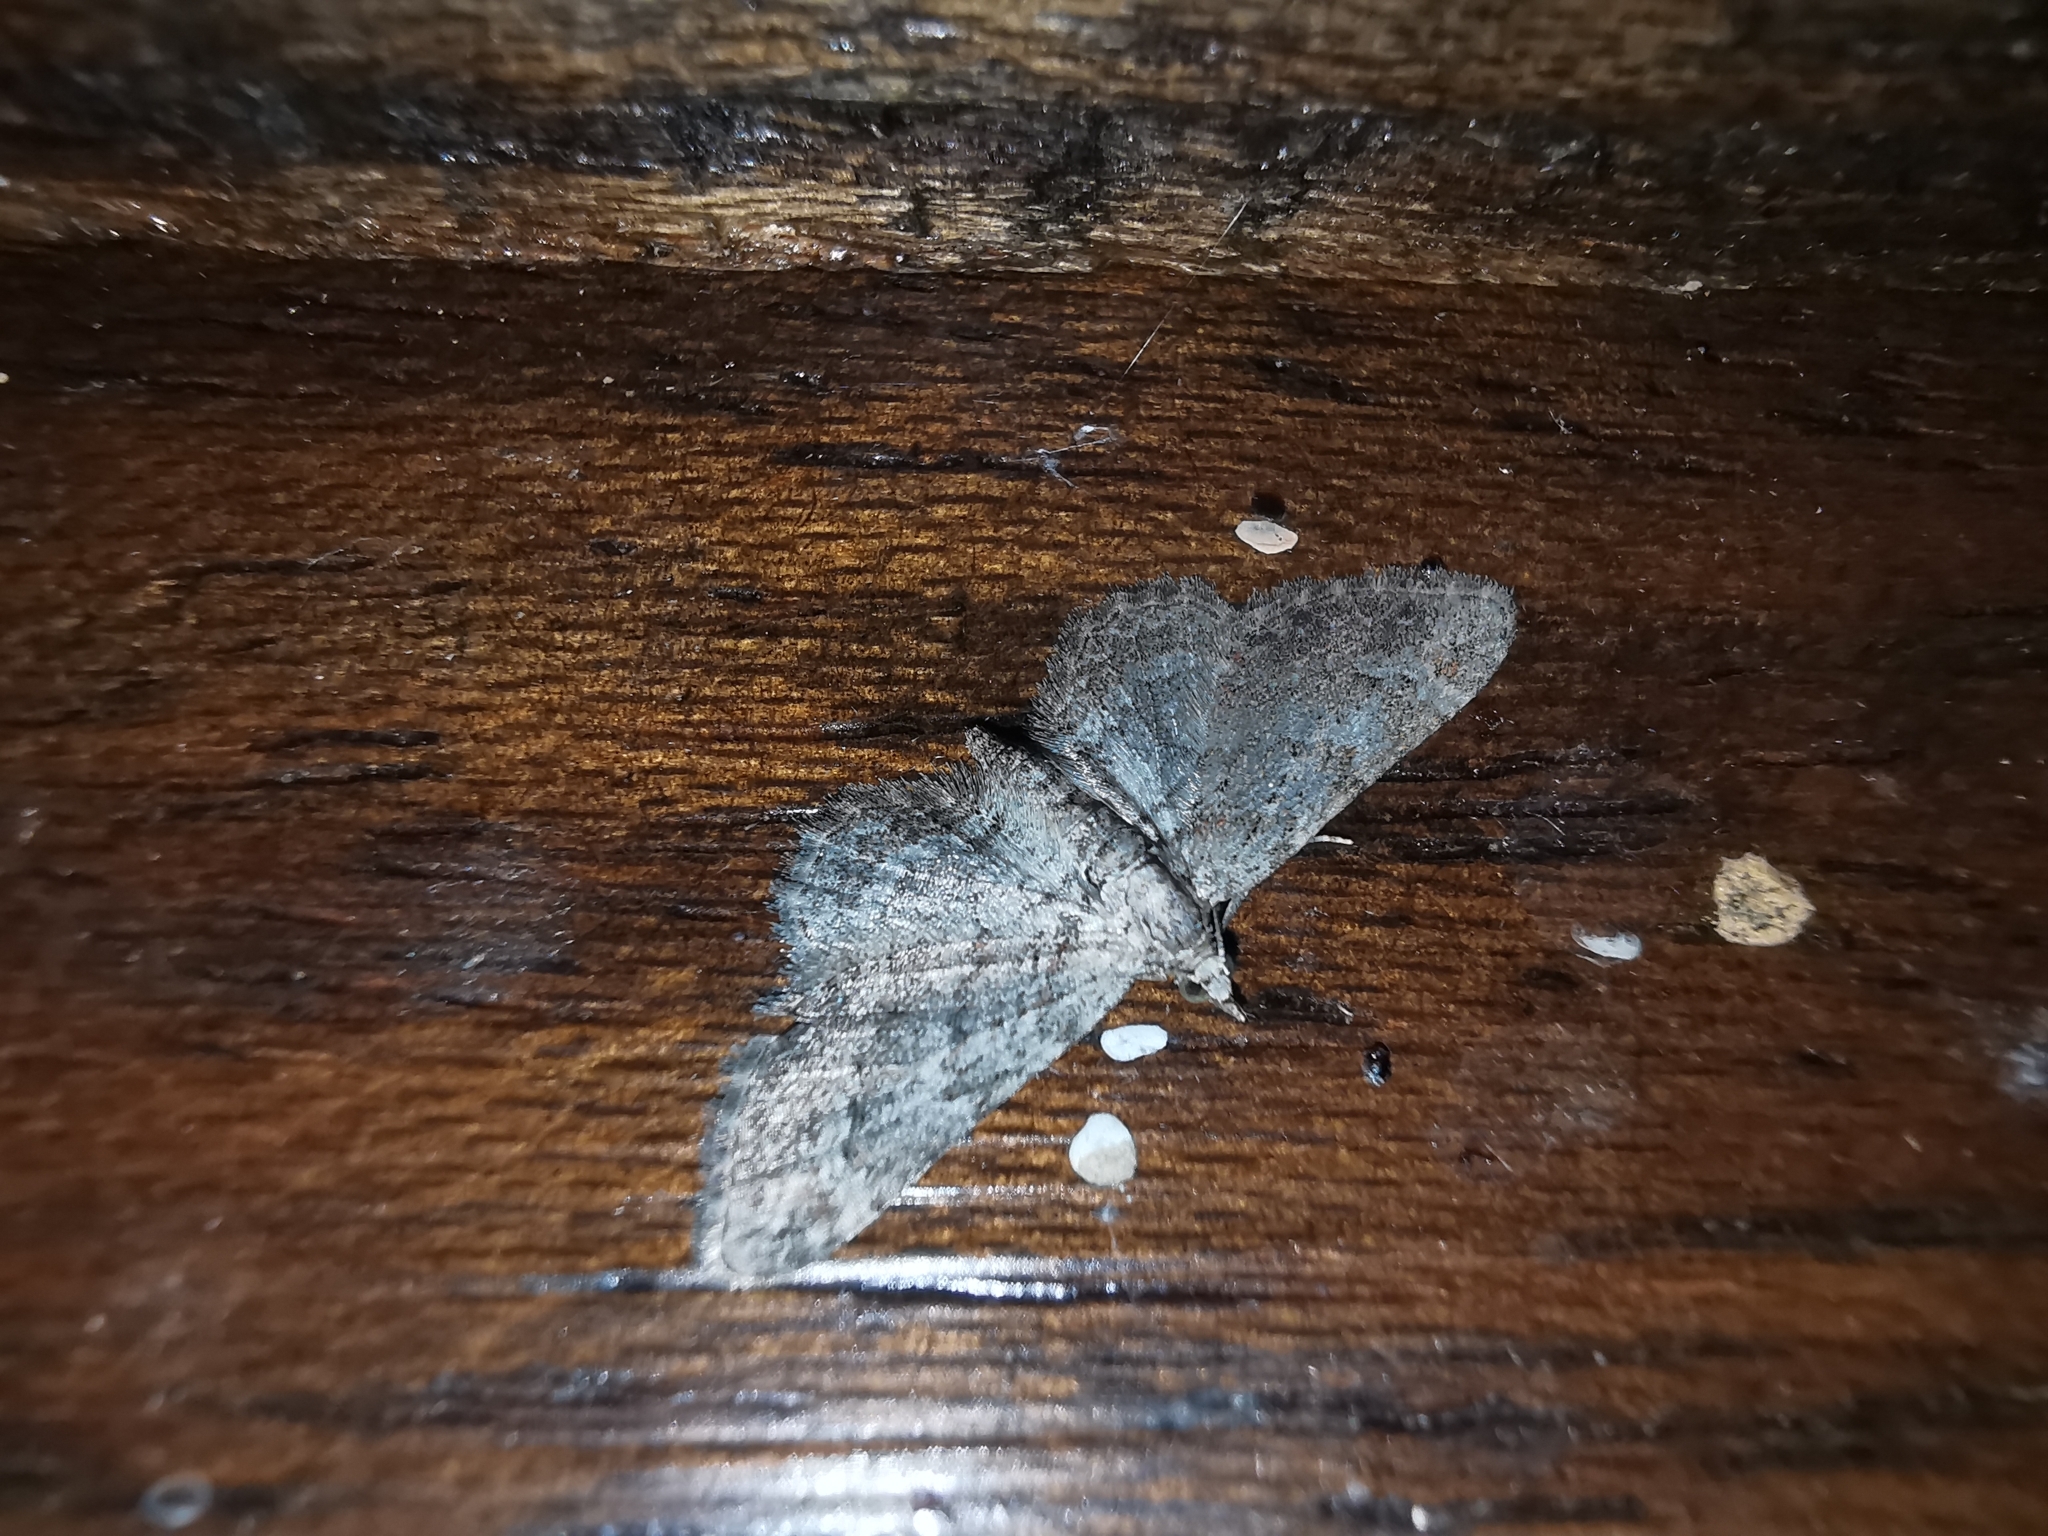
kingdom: Animalia
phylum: Arthropoda
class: Insecta
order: Lepidoptera
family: Geometridae
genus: Gymnoscelis
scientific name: Gymnoscelis rufifasciata
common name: Double-striped pug
